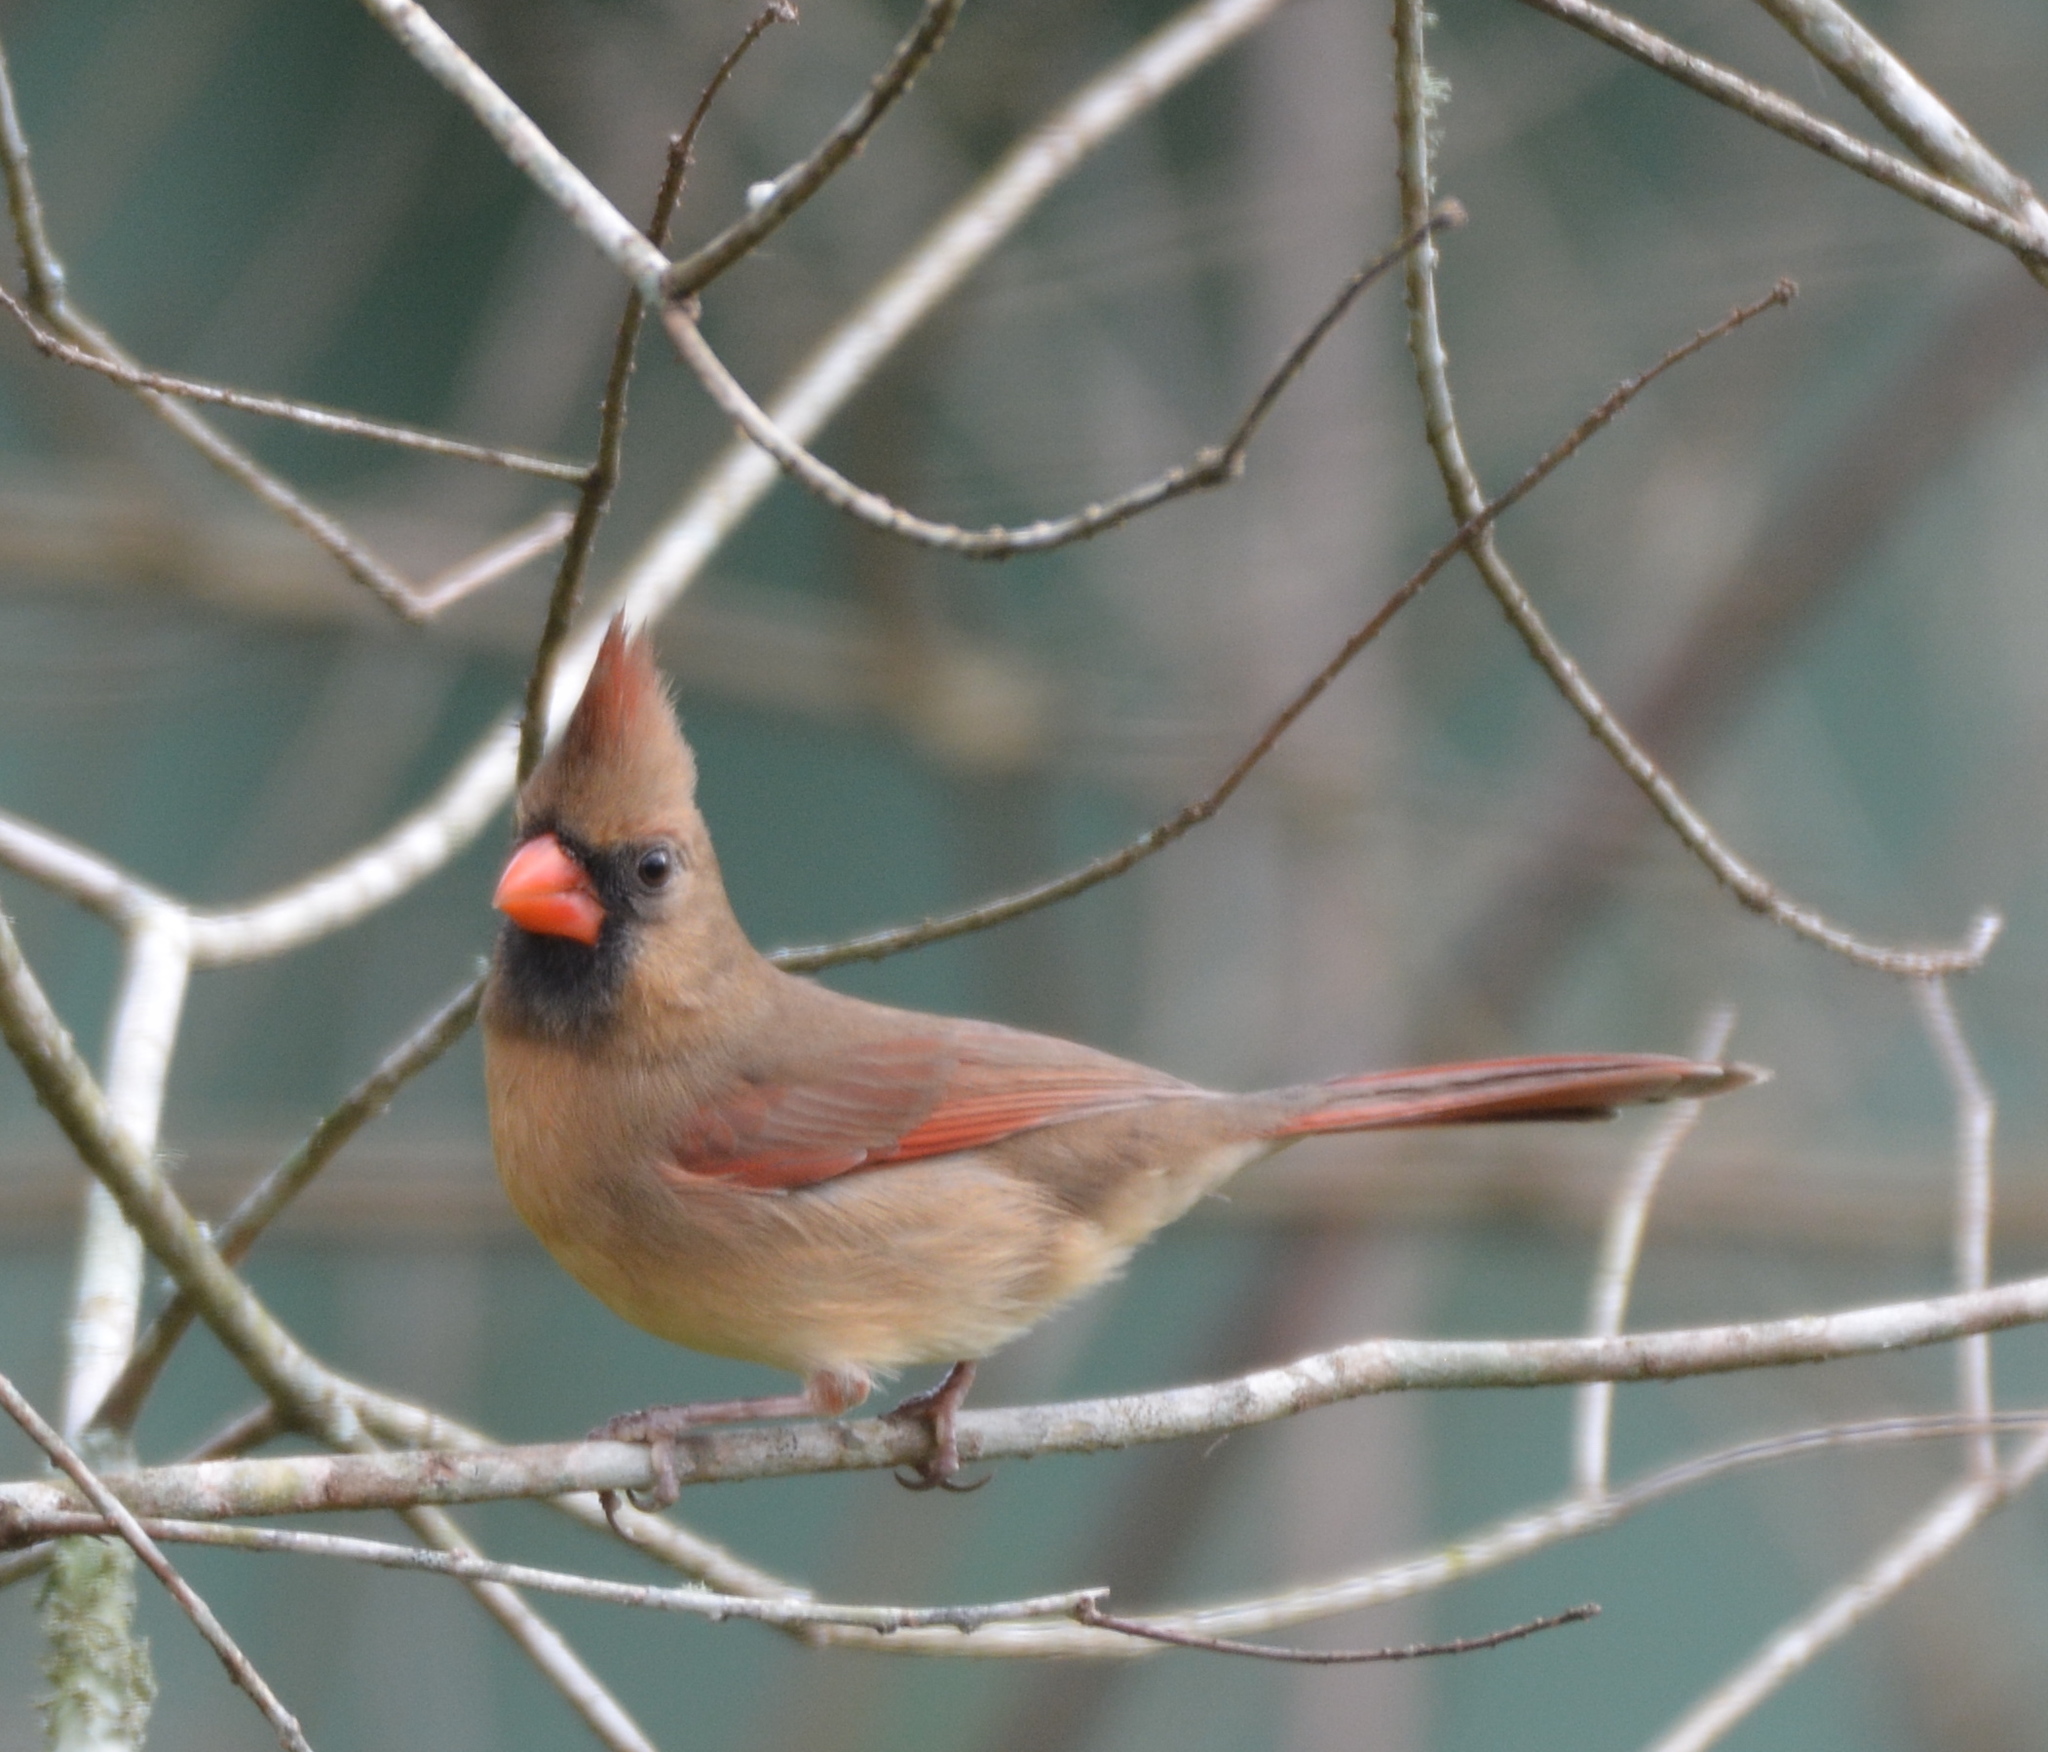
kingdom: Animalia
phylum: Chordata
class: Aves
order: Passeriformes
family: Cardinalidae
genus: Cardinalis
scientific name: Cardinalis cardinalis
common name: Northern cardinal
